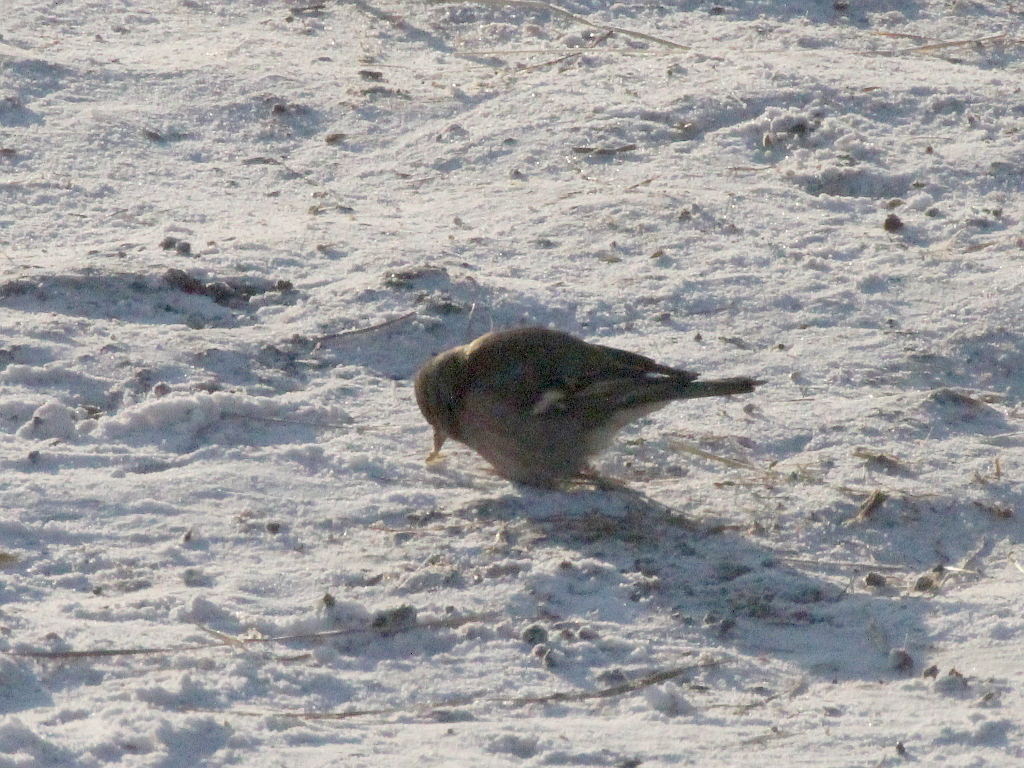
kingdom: Animalia
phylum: Chordata
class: Aves
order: Passeriformes
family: Fringillidae
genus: Fringilla
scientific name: Fringilla coelebs
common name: Common chaffinch
